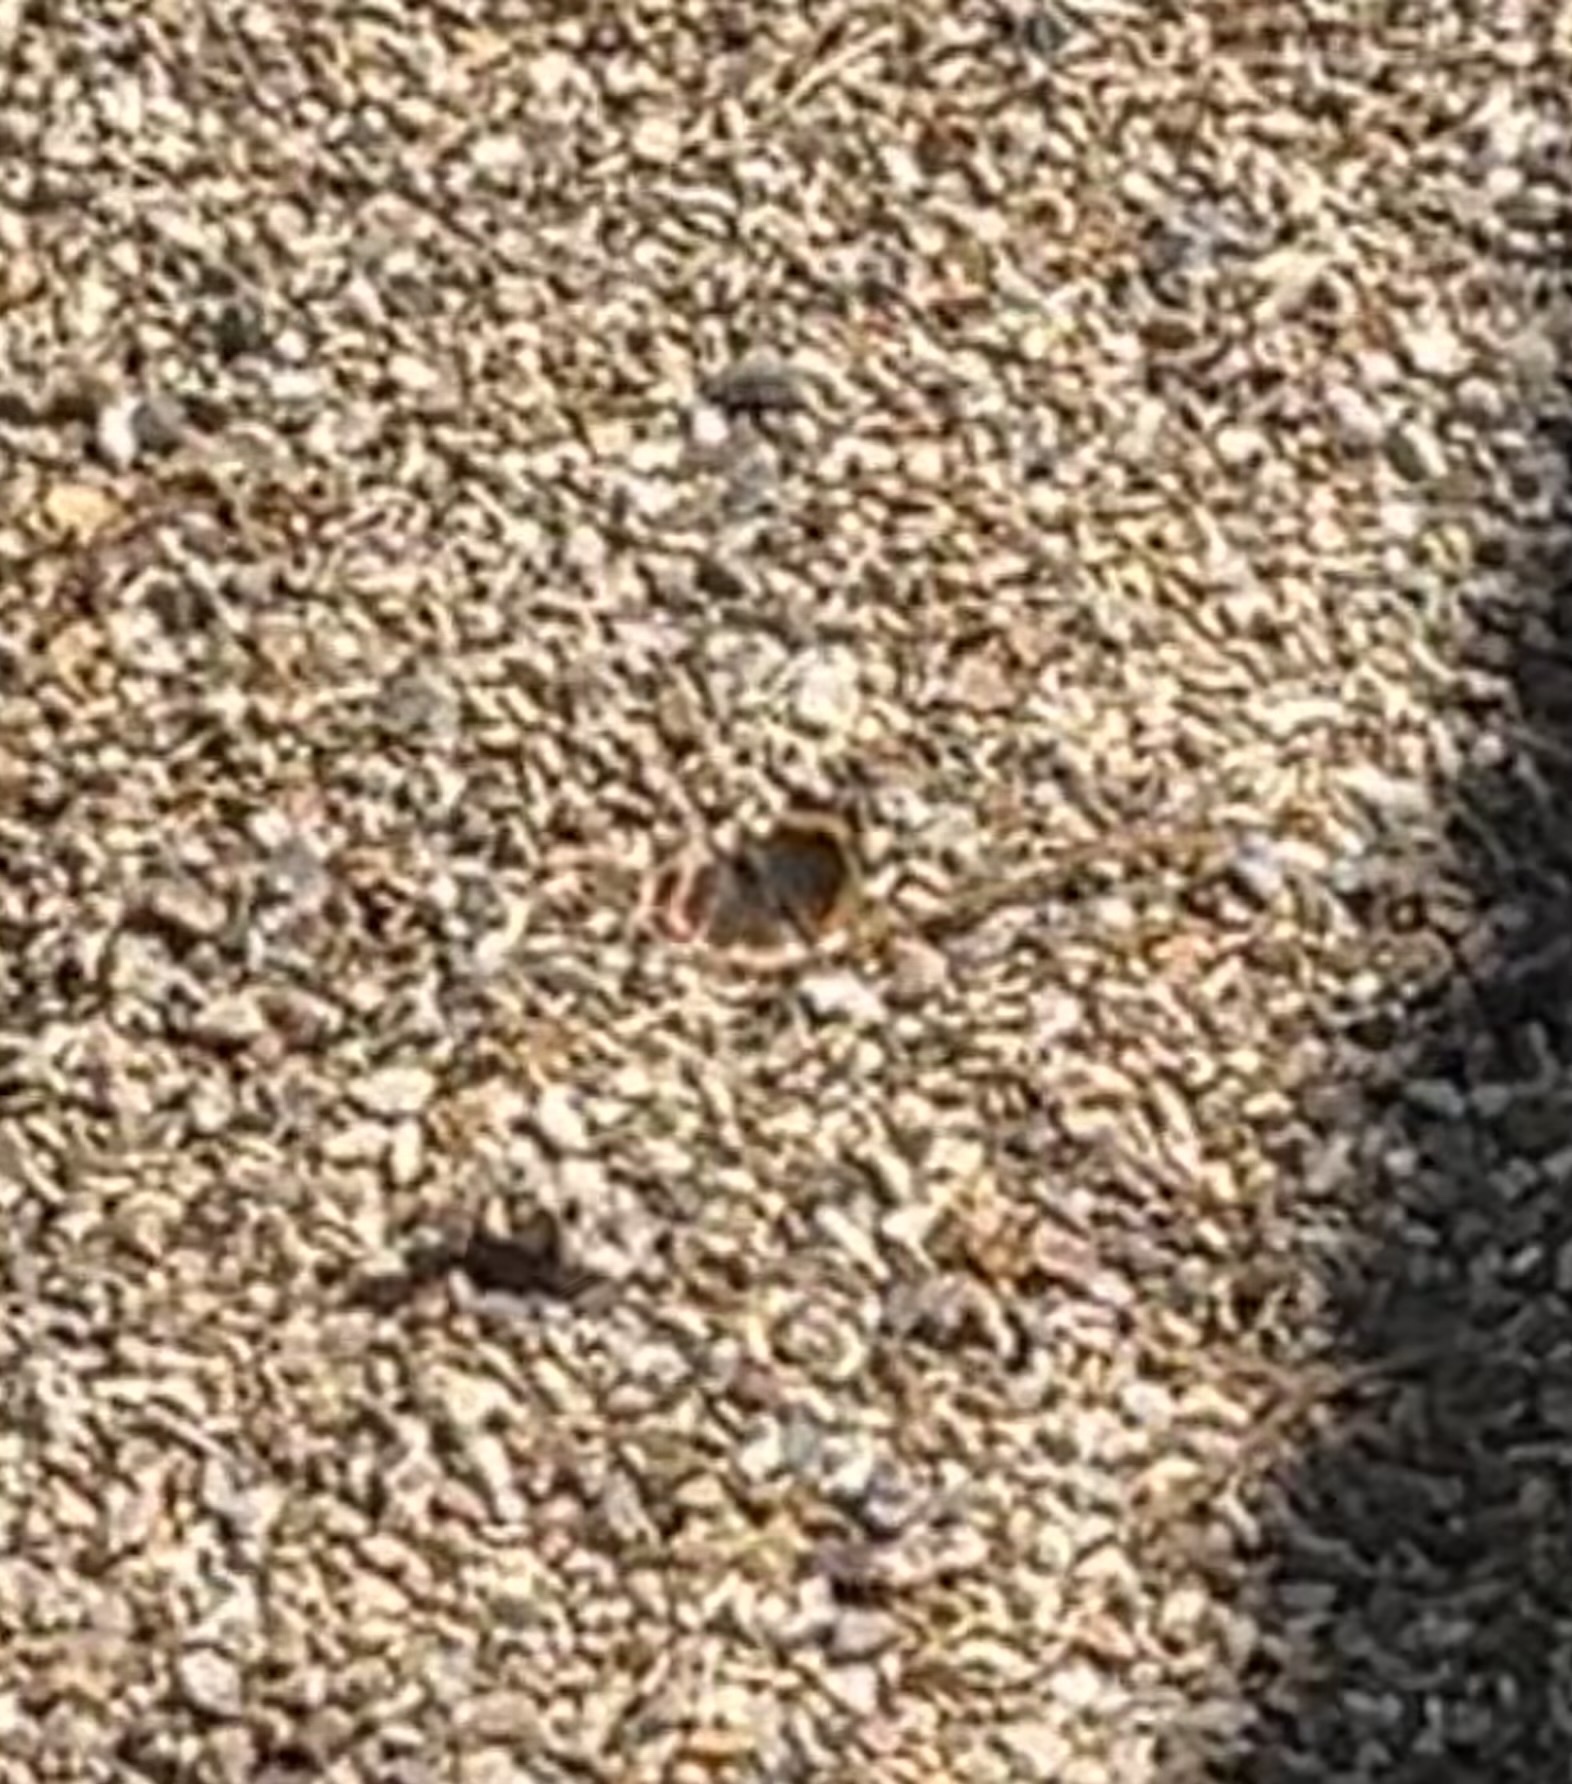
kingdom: Animalia
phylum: Arthropoda
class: Insecta
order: Lepidoptera
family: Nymphalidae
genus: Vanessa
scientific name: Vanessa atalanta
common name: Red admiral
